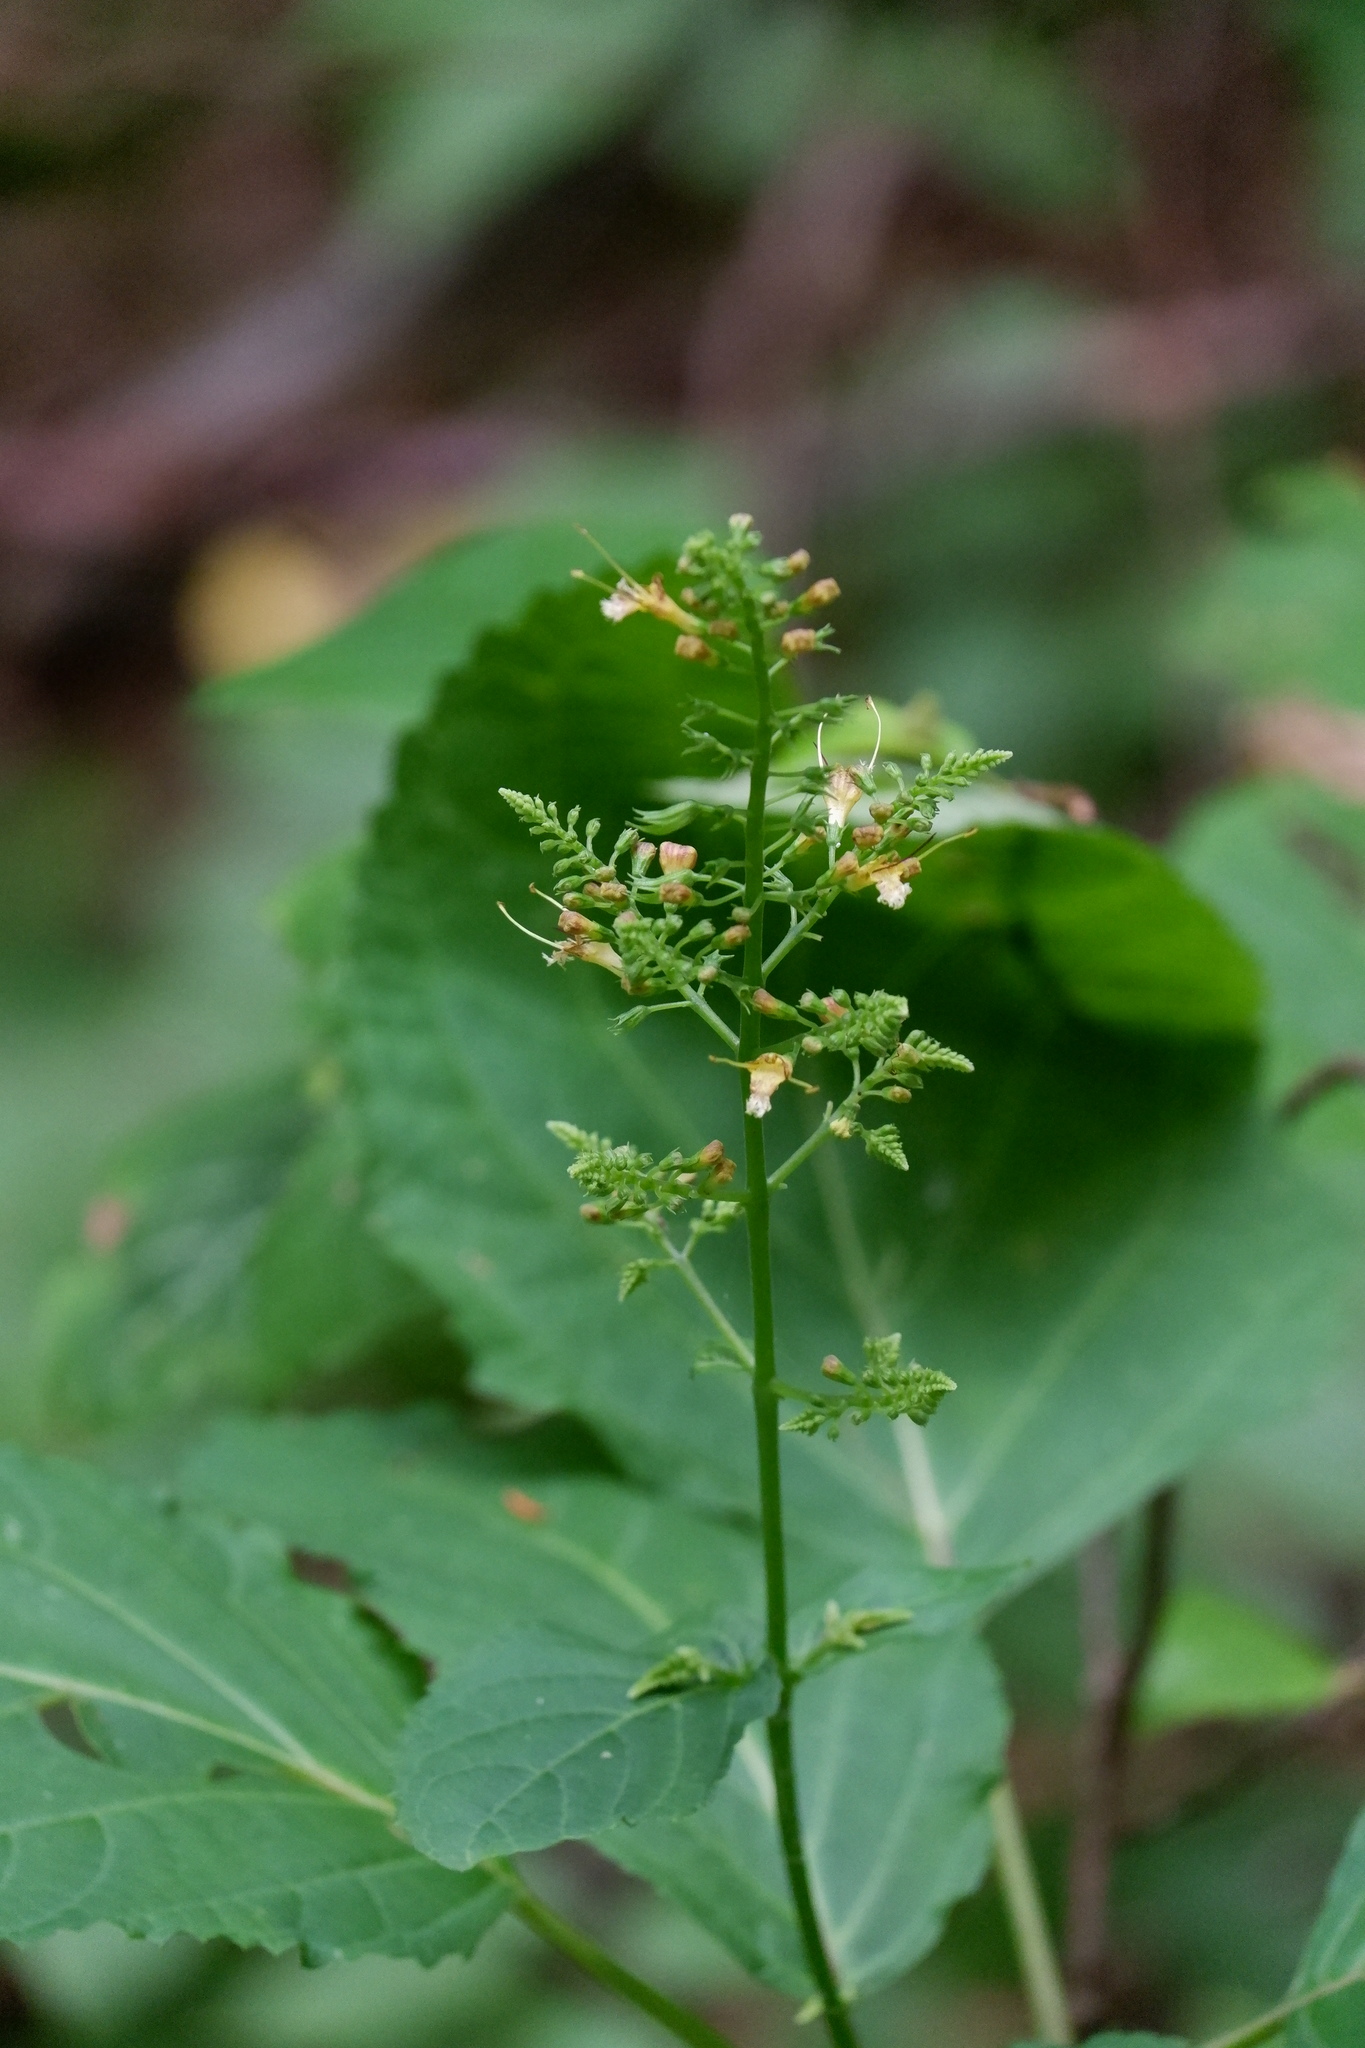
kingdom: Plantae
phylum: Tracheophyta
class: Magnoliopsida
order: Lamiales
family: Lamiaceae
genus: Collinsonia
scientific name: Collinsonia canadensis
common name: Northern horsebalm
